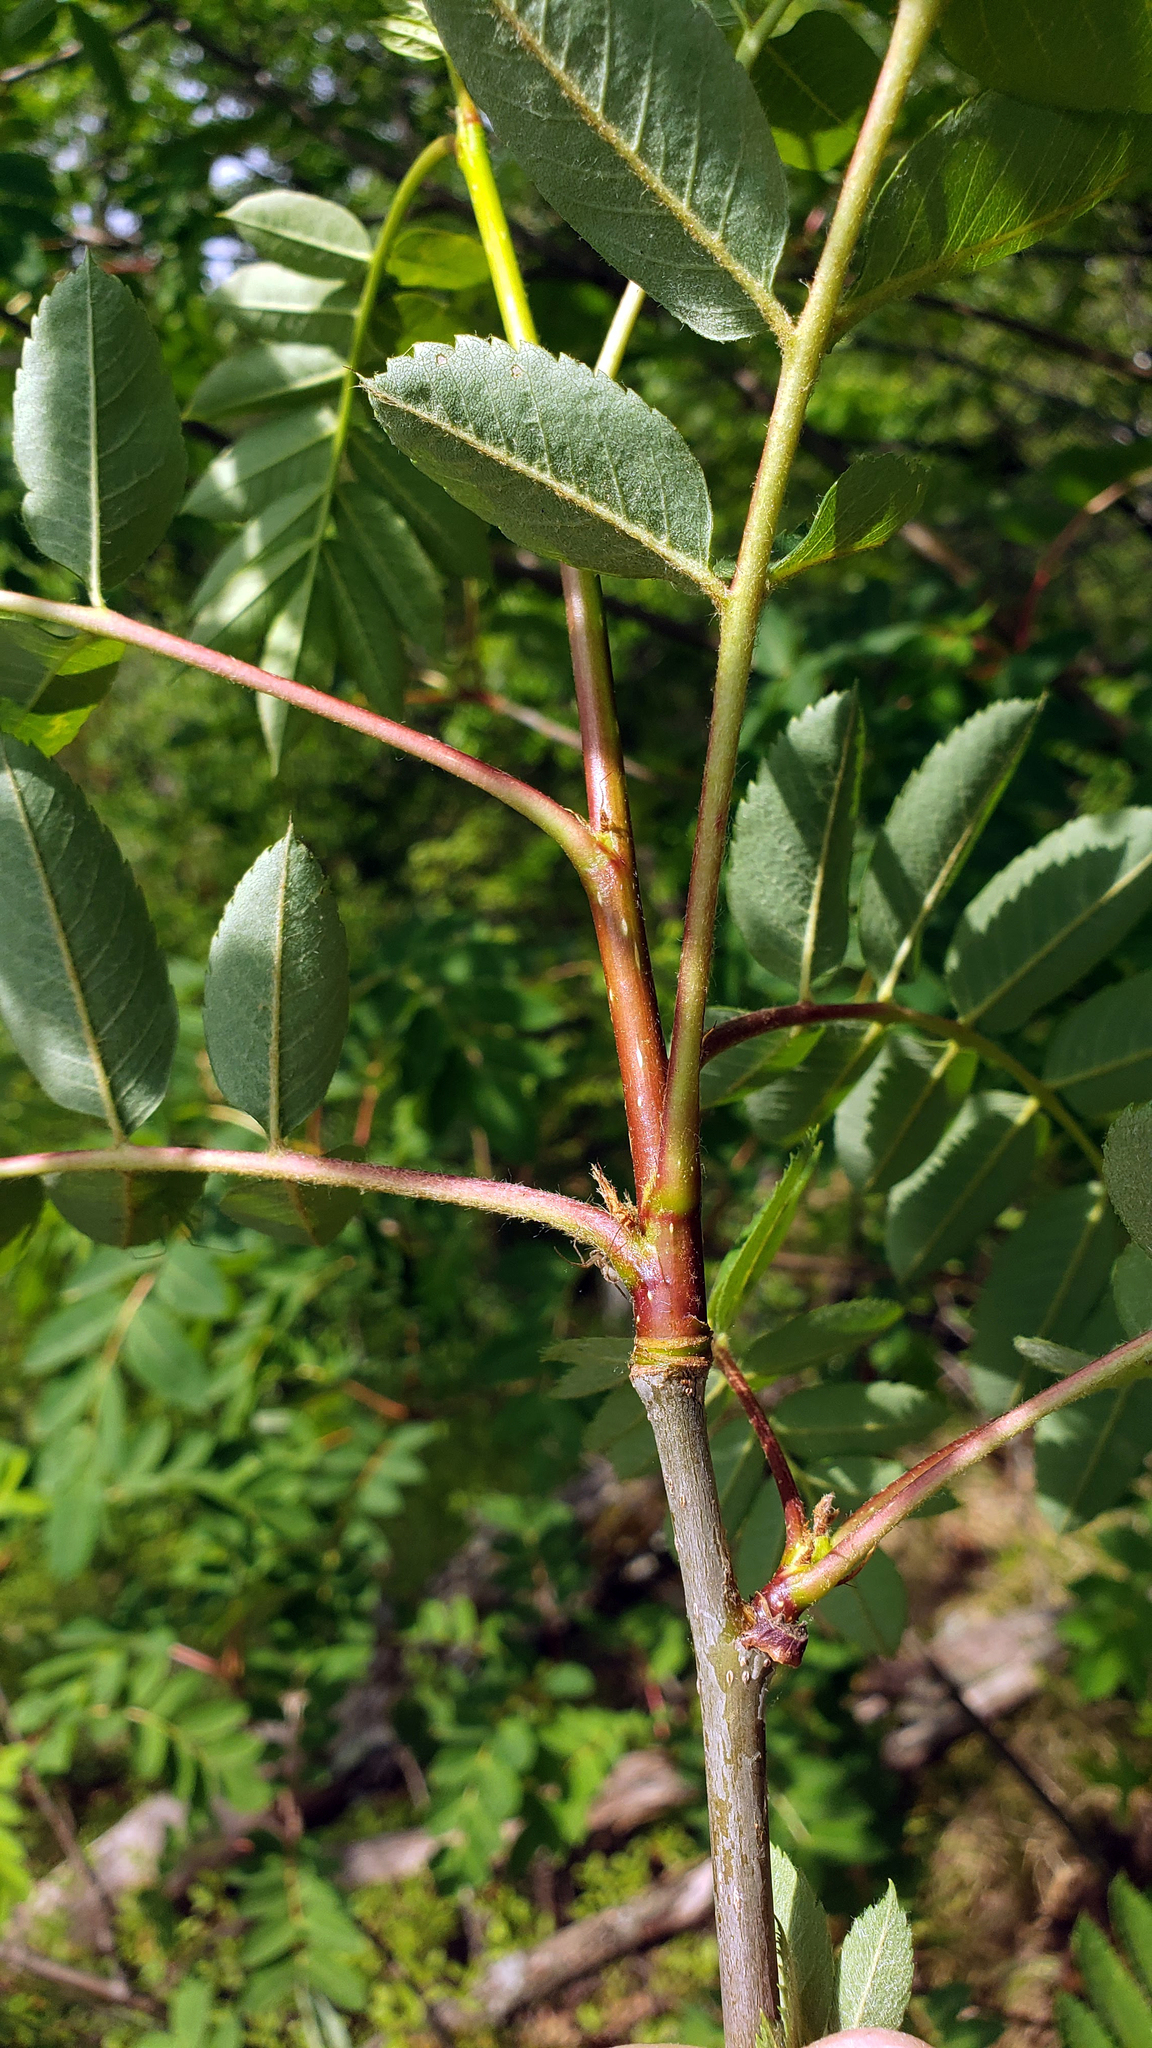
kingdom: Plantae
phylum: Tracheophyta
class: Magnoliopsida
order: Rosales
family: Rosaceae
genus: Sorbus
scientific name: Sorbus aucuparia
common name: Rowan
